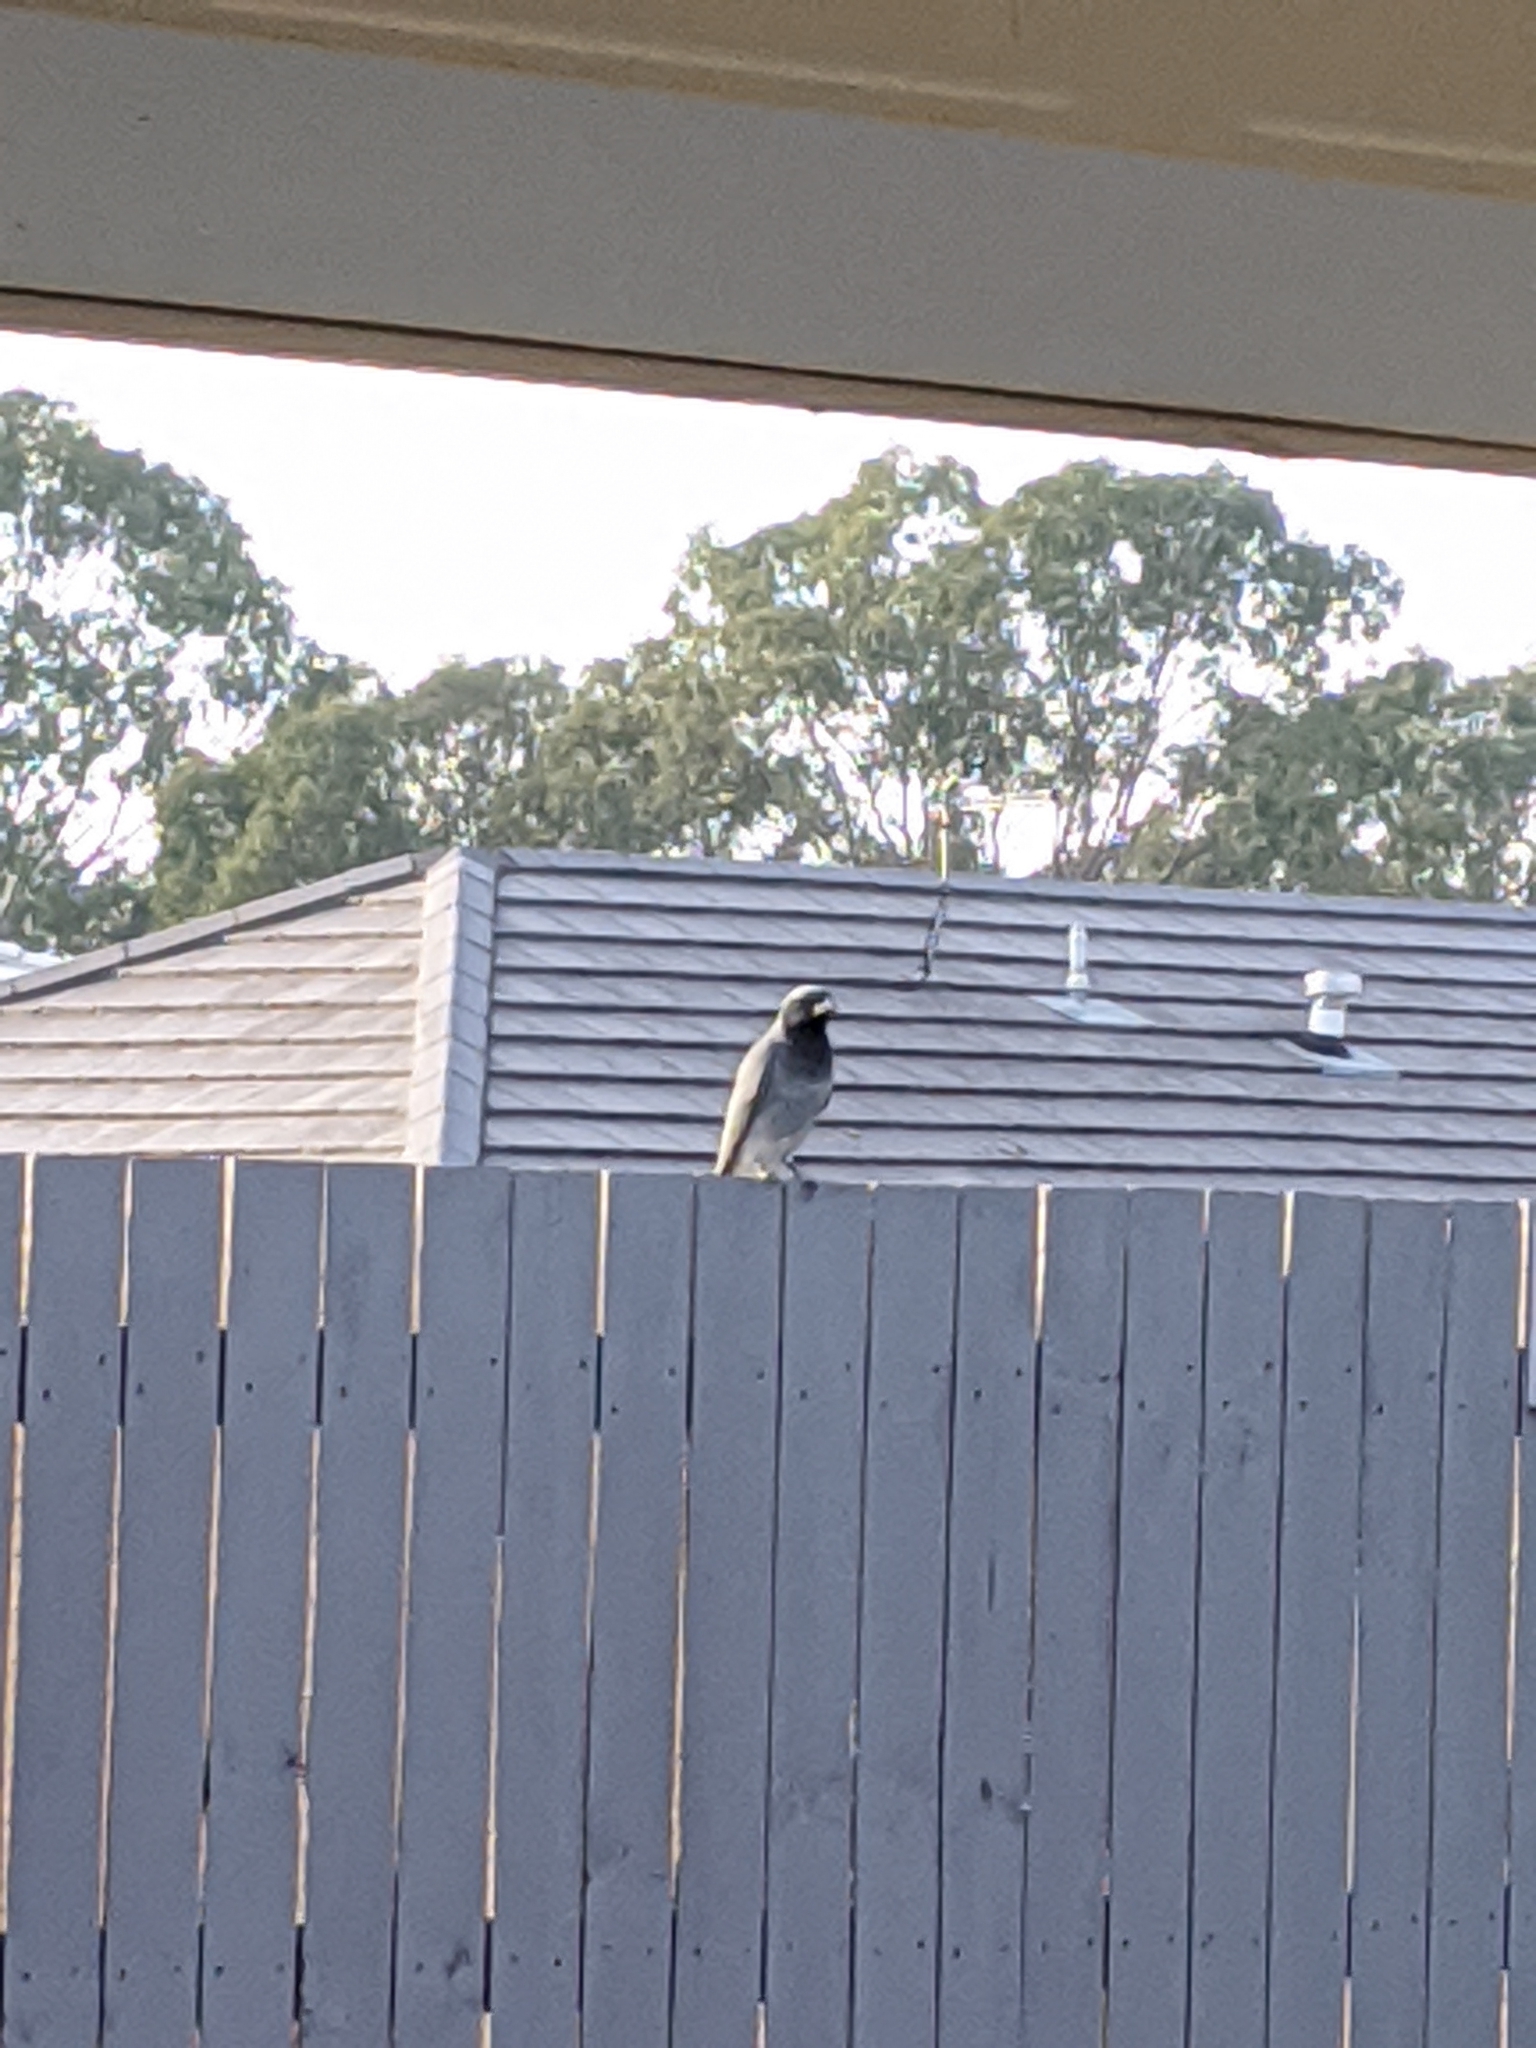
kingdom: Animalia
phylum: Chordata
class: Aves
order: Passeriformes
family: Campephagidae
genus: Coracina
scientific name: Coracina novaehollandiae
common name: Black-faced cuckooshrike
